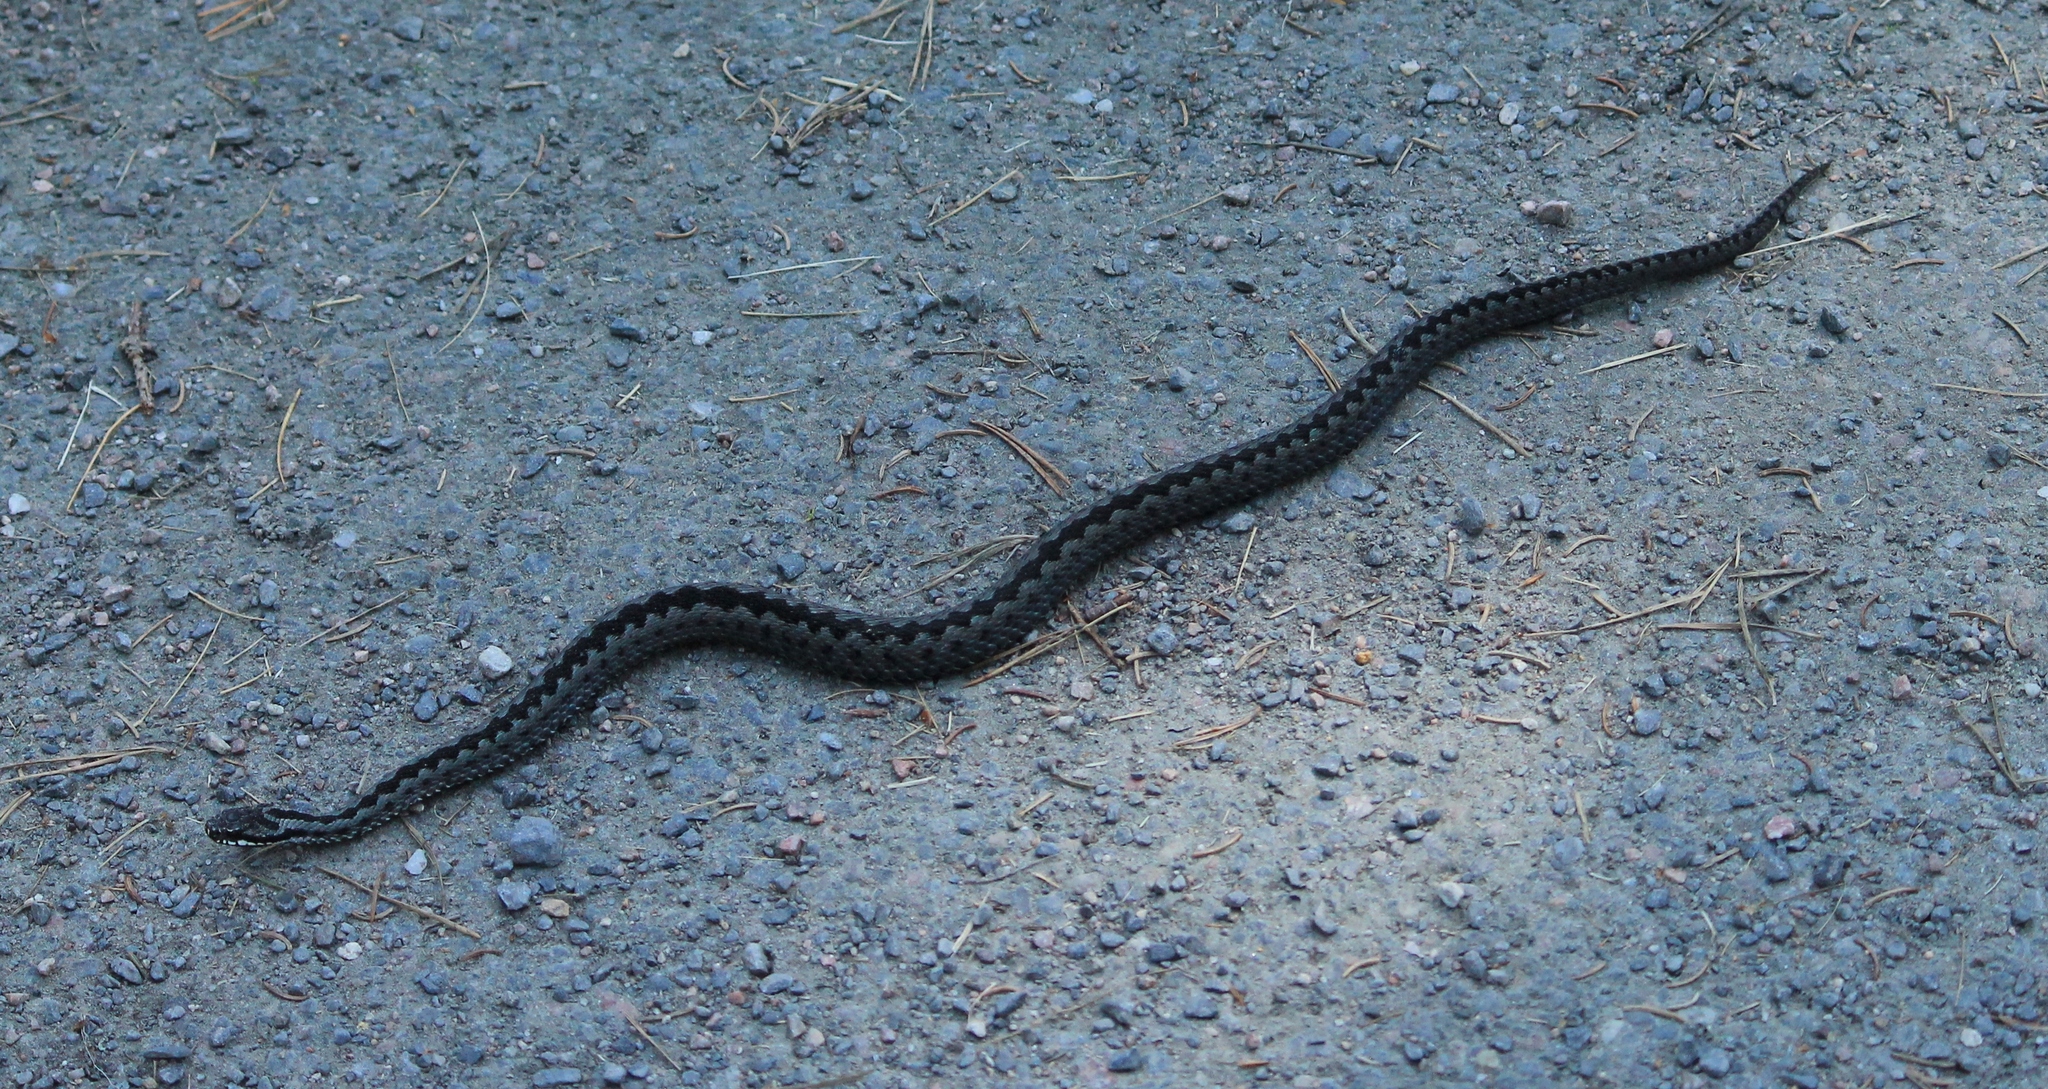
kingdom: Animalia
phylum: Chordata
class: Squamata
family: Viperidae
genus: Vipera
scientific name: Vipera berus
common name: Adder
